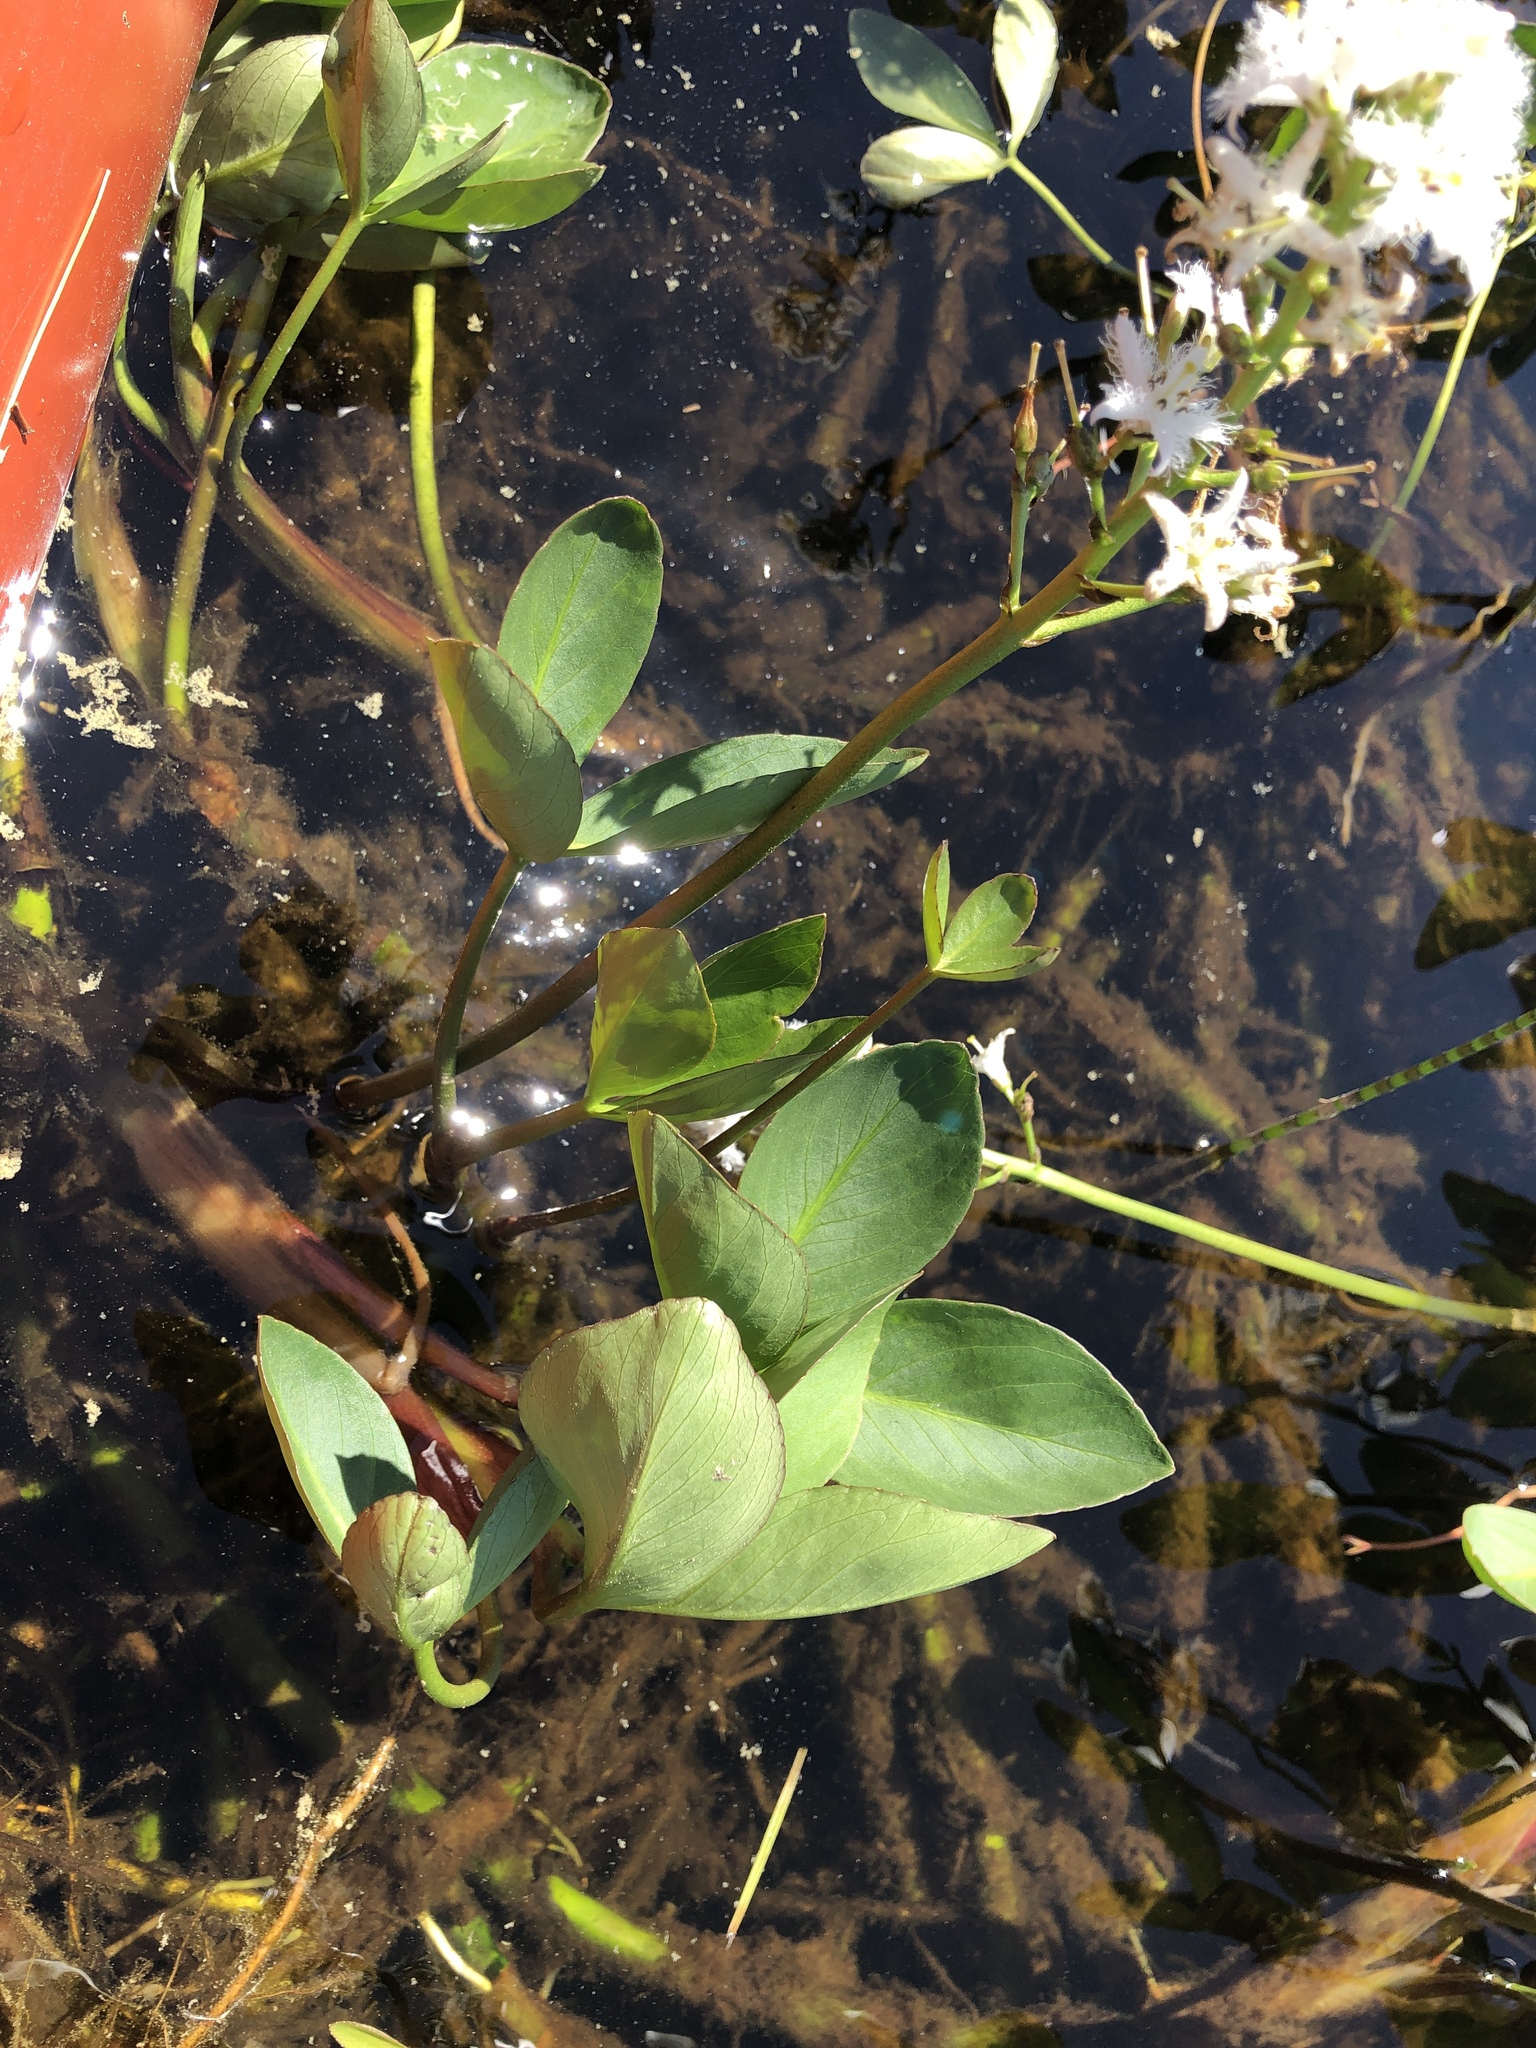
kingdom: Plantae
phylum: Tracheophyta
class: Magnoliopsida
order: Asterales
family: Menyanthaceae
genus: Menyanthes
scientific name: Menyanthes trifoliata
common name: Bogbean
